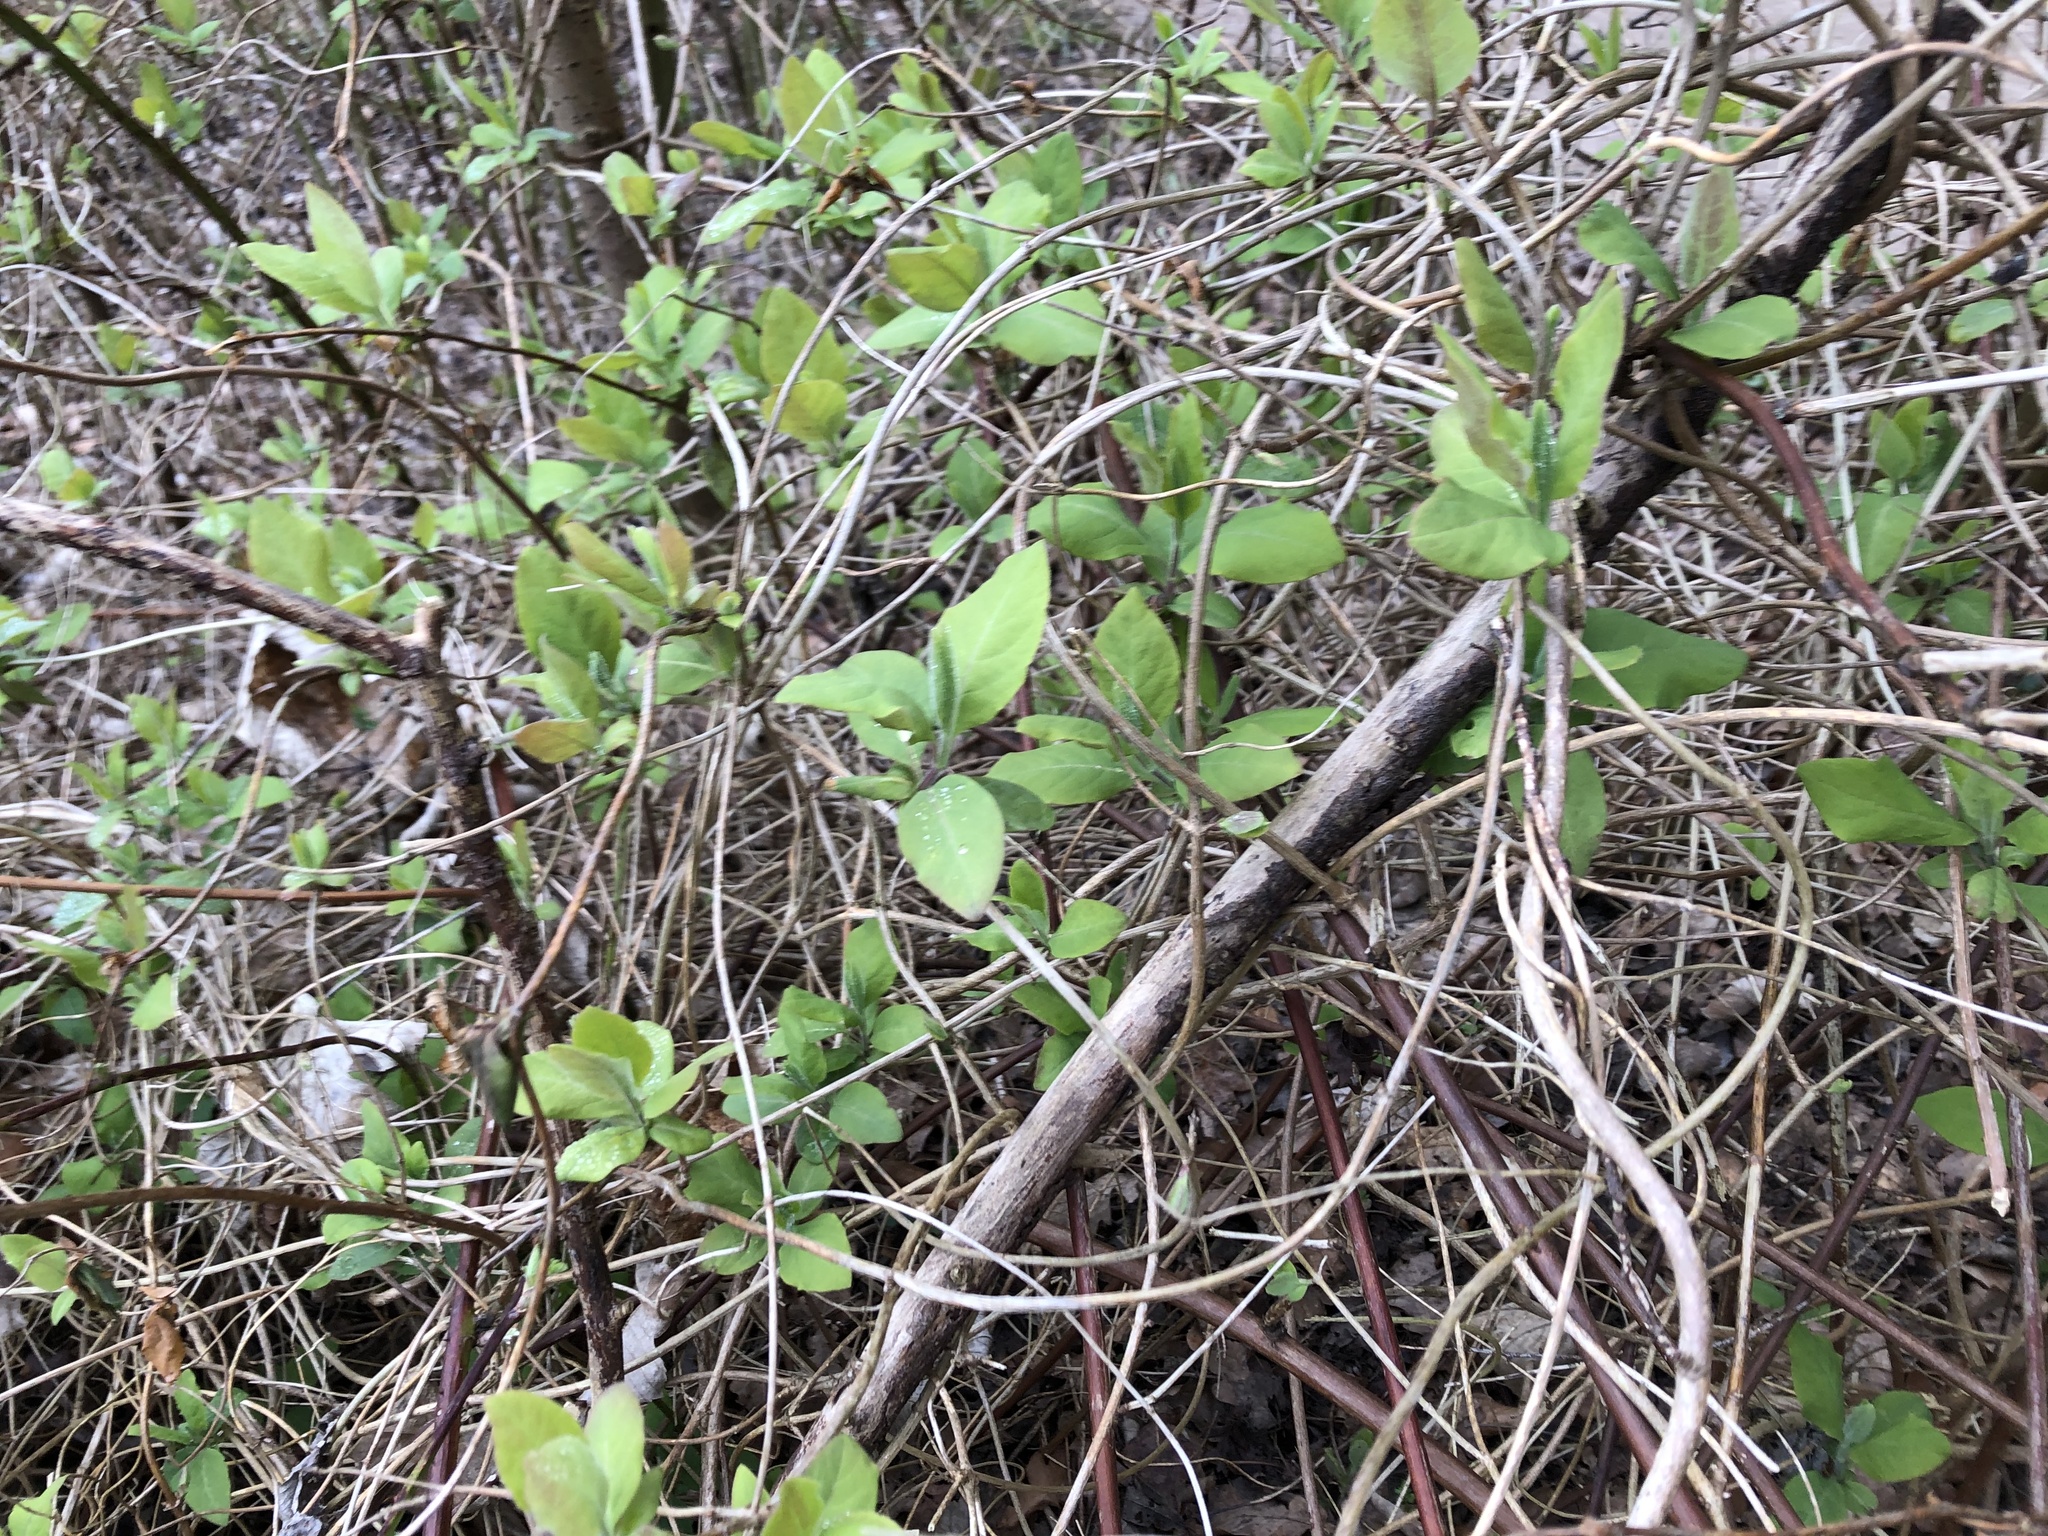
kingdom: Plantae
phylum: Tracheophyta
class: Magnoliopsida
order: Dipsacales
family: Caprifoliaceae
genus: Lonicera
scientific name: Lonicera periclymenum
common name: European honeysuckle
